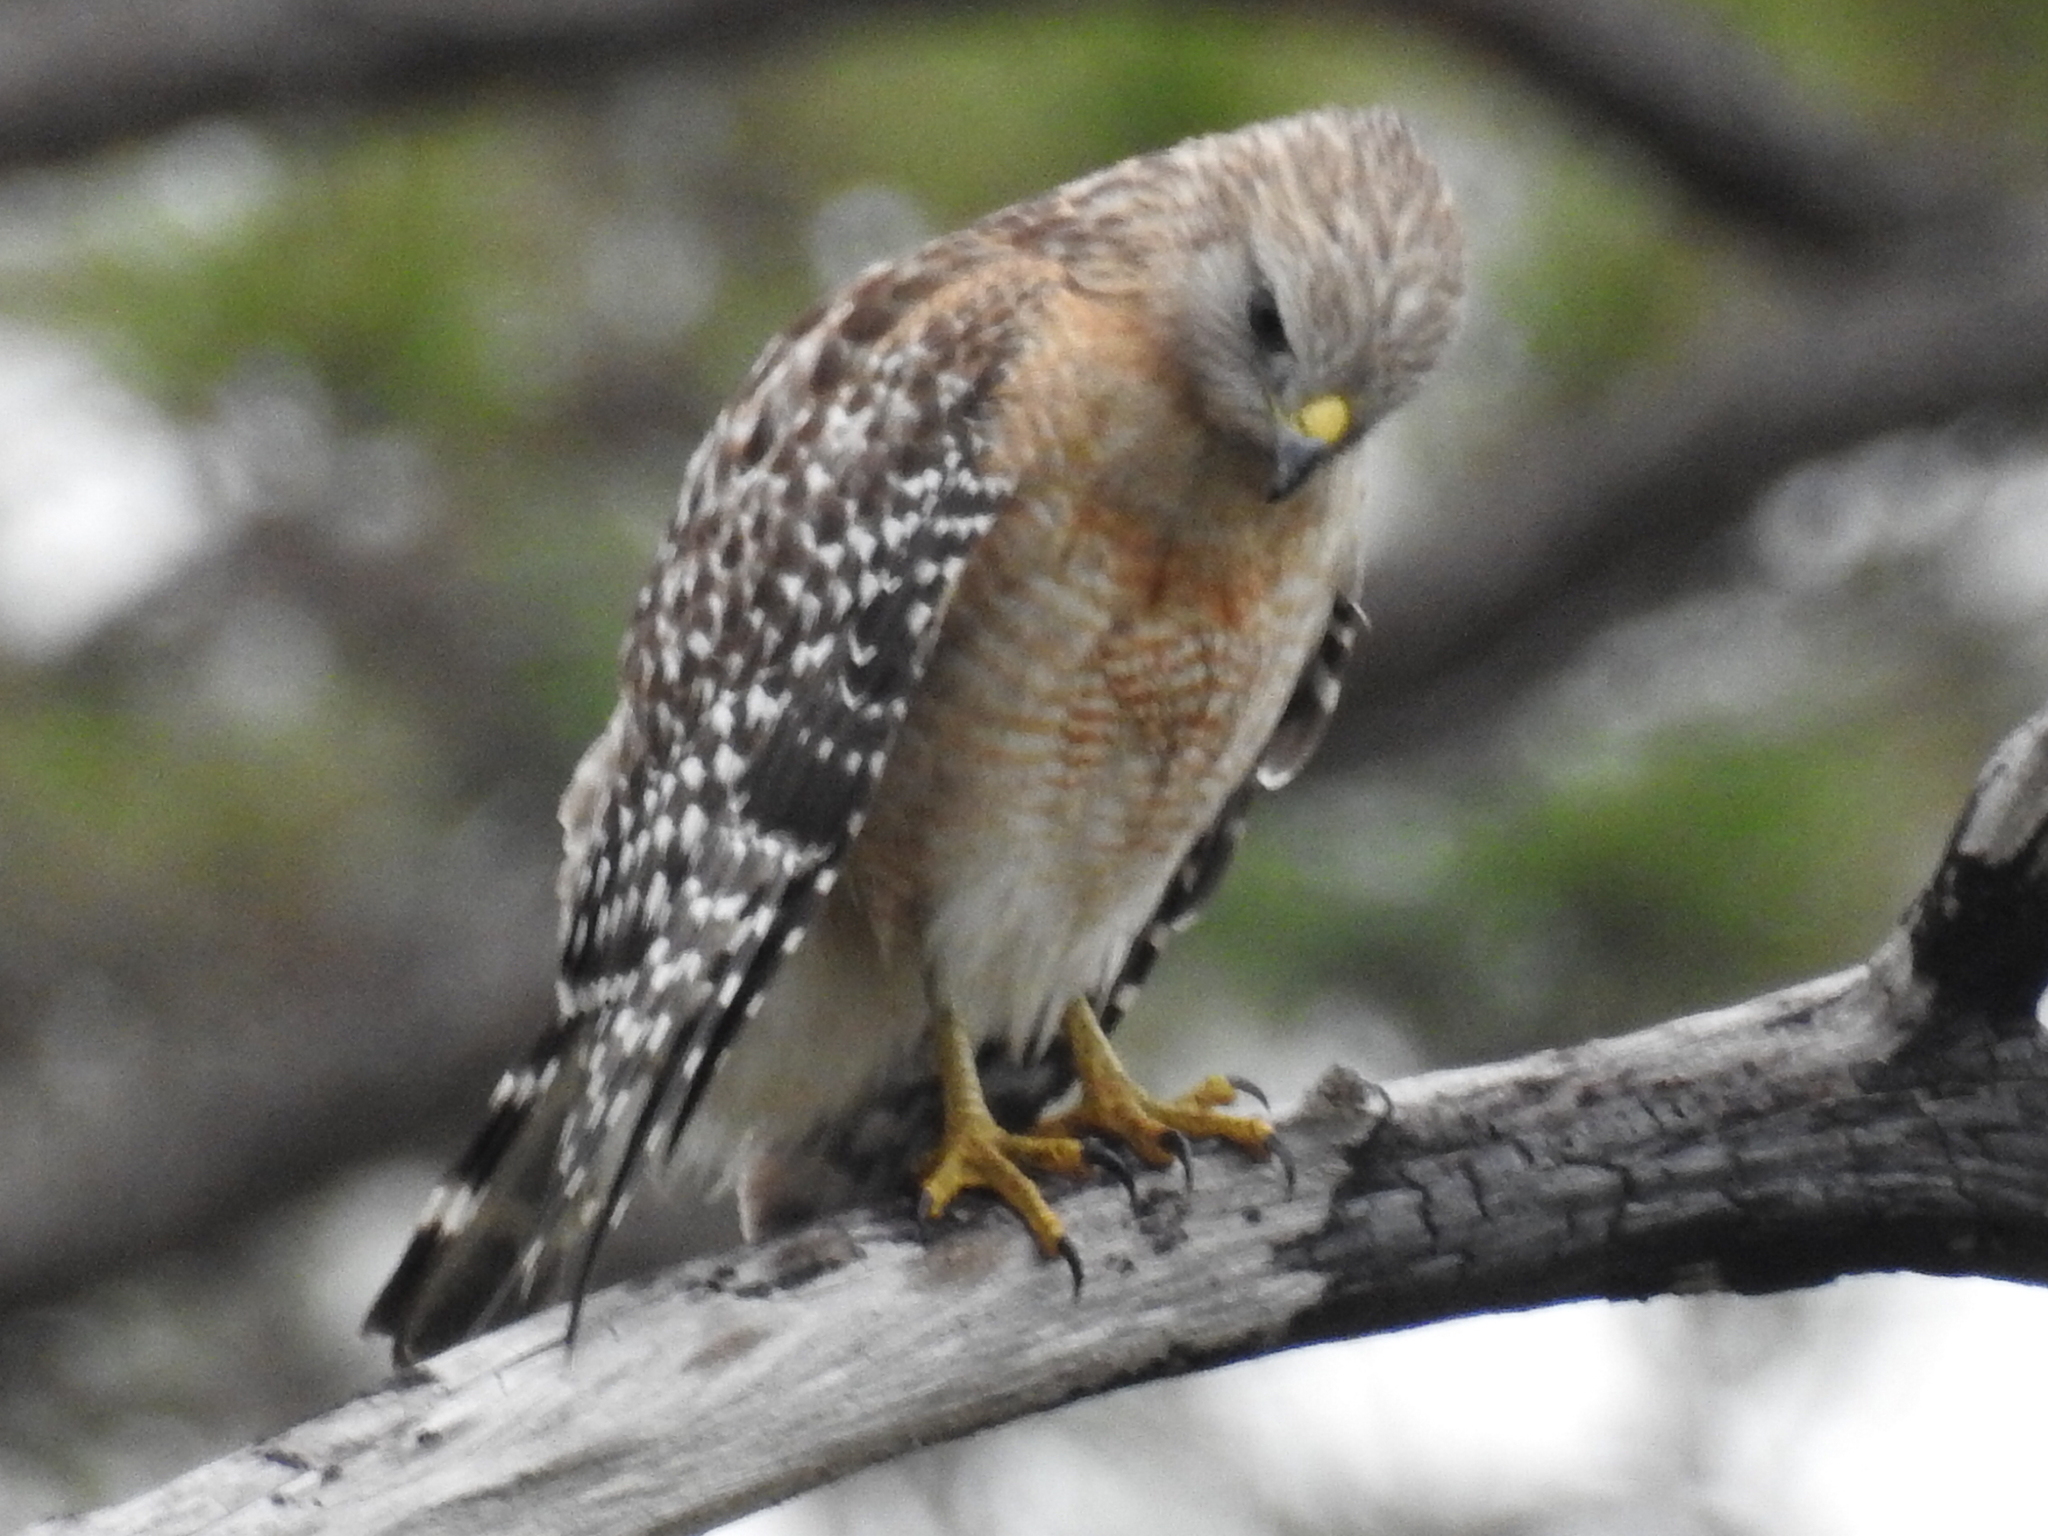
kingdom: Animalia
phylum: Chordata
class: Aves
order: Accipitriformes
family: Accipitridae
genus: Buteo
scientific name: Buteo lineatus
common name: Red-shouldered hawk
